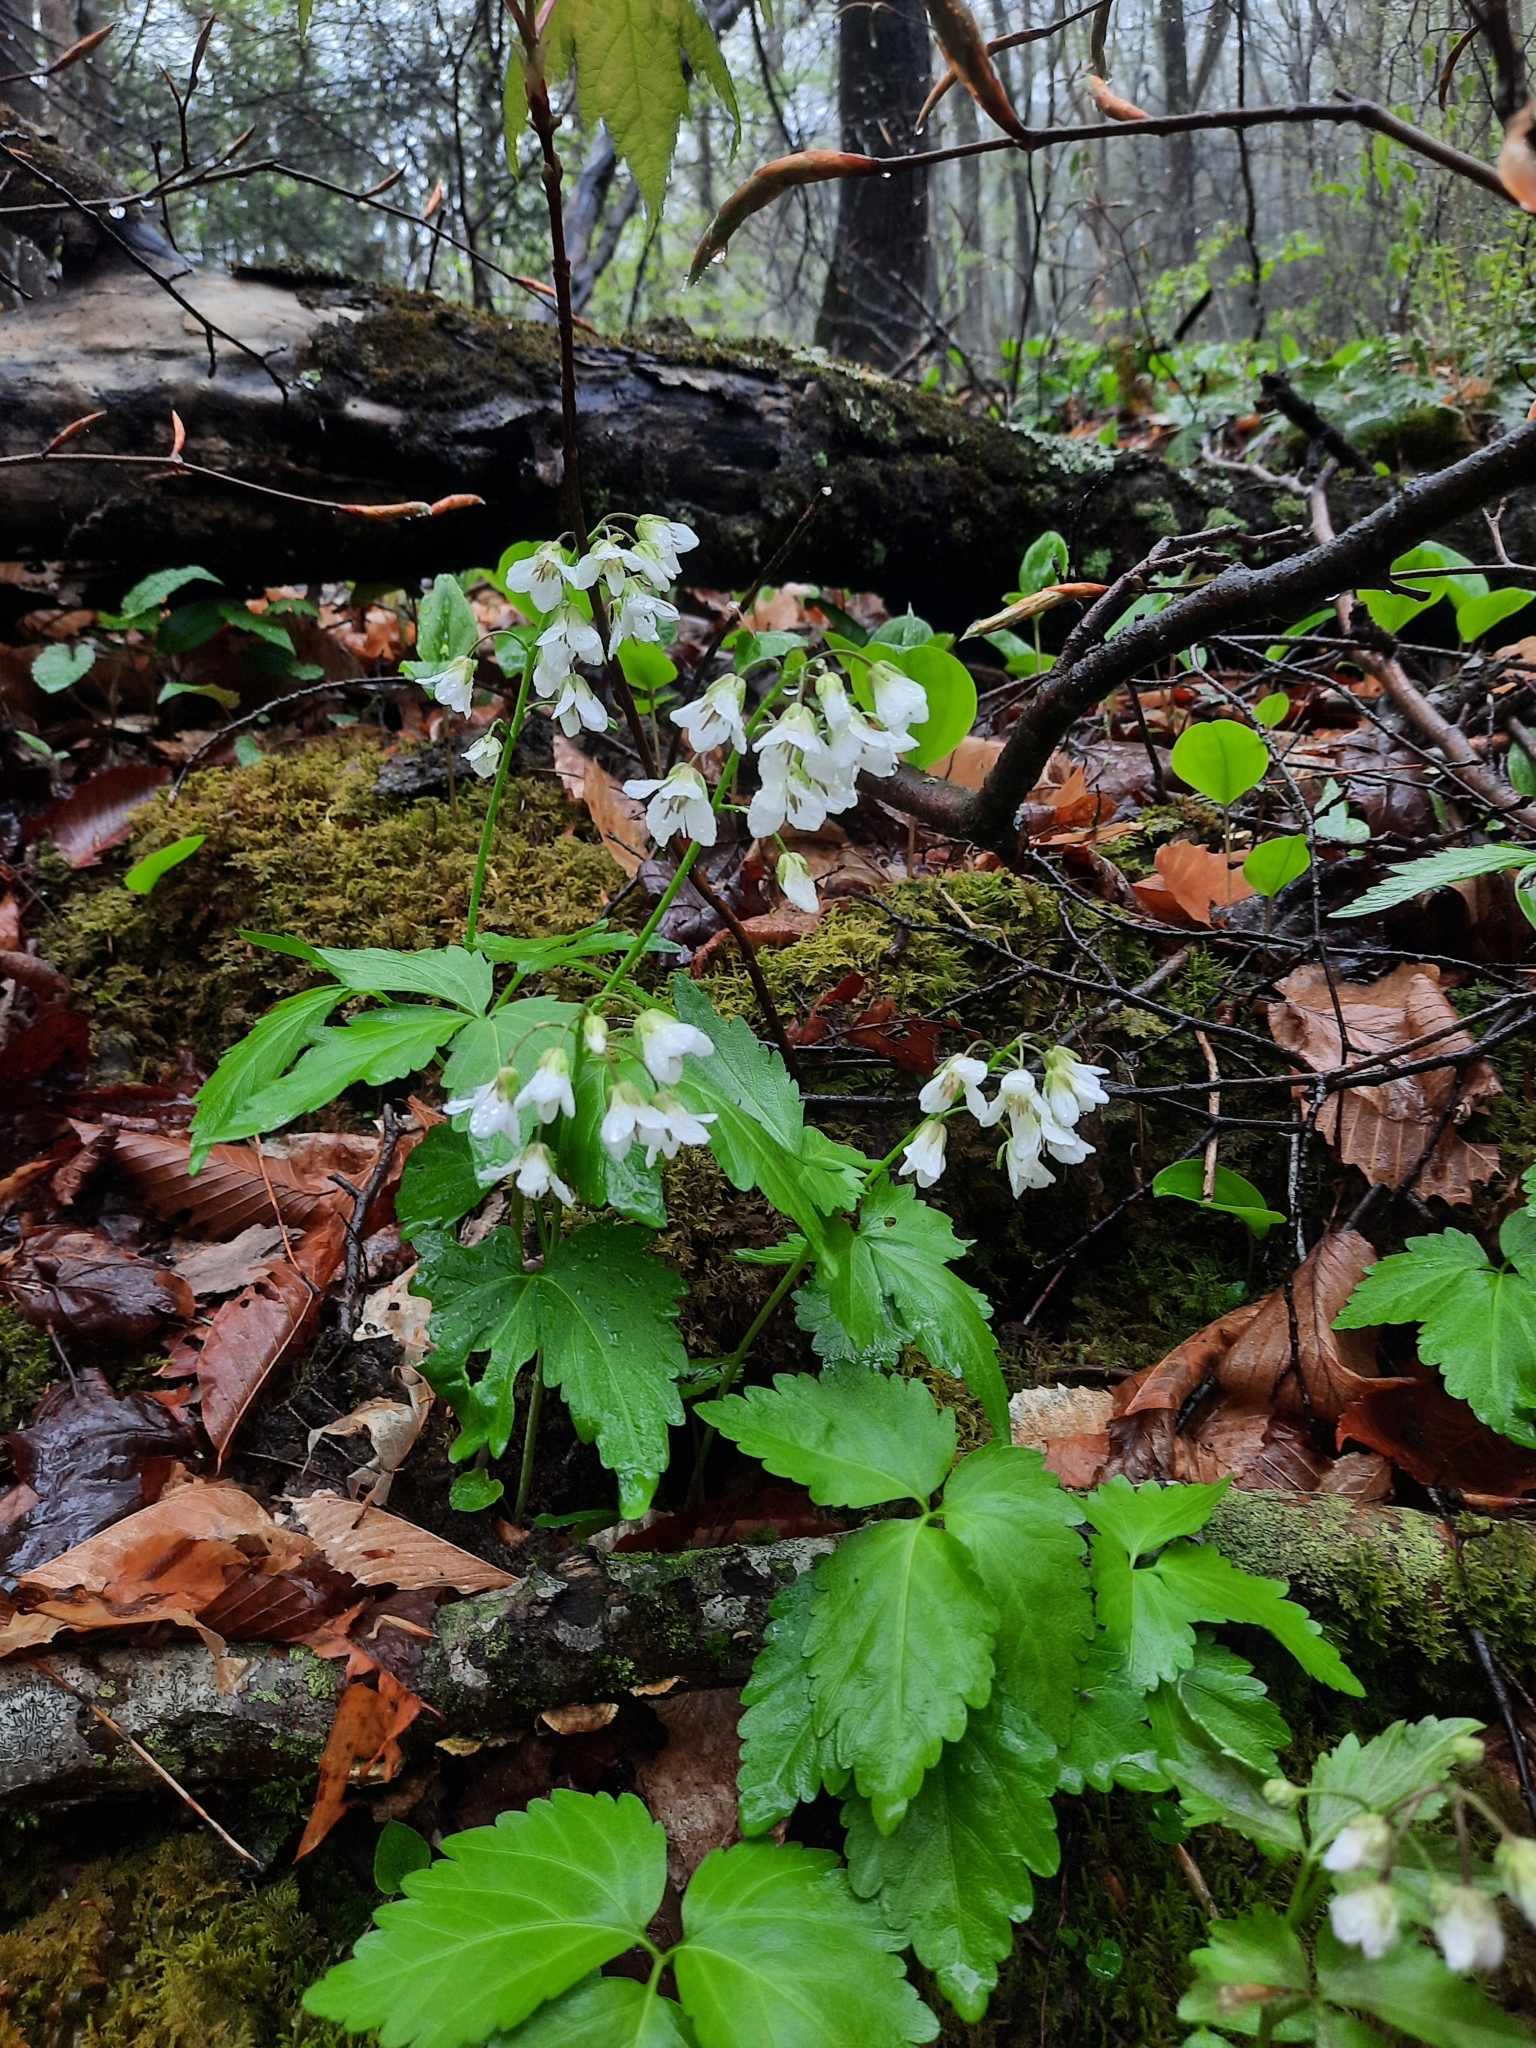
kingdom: Plantae
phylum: Tracheophyta
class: Magnoliopsida
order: Brassicales
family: Brassicaceae
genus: Cardamine
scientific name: Cardamine diphylla
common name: Broad-leaved toothwort
